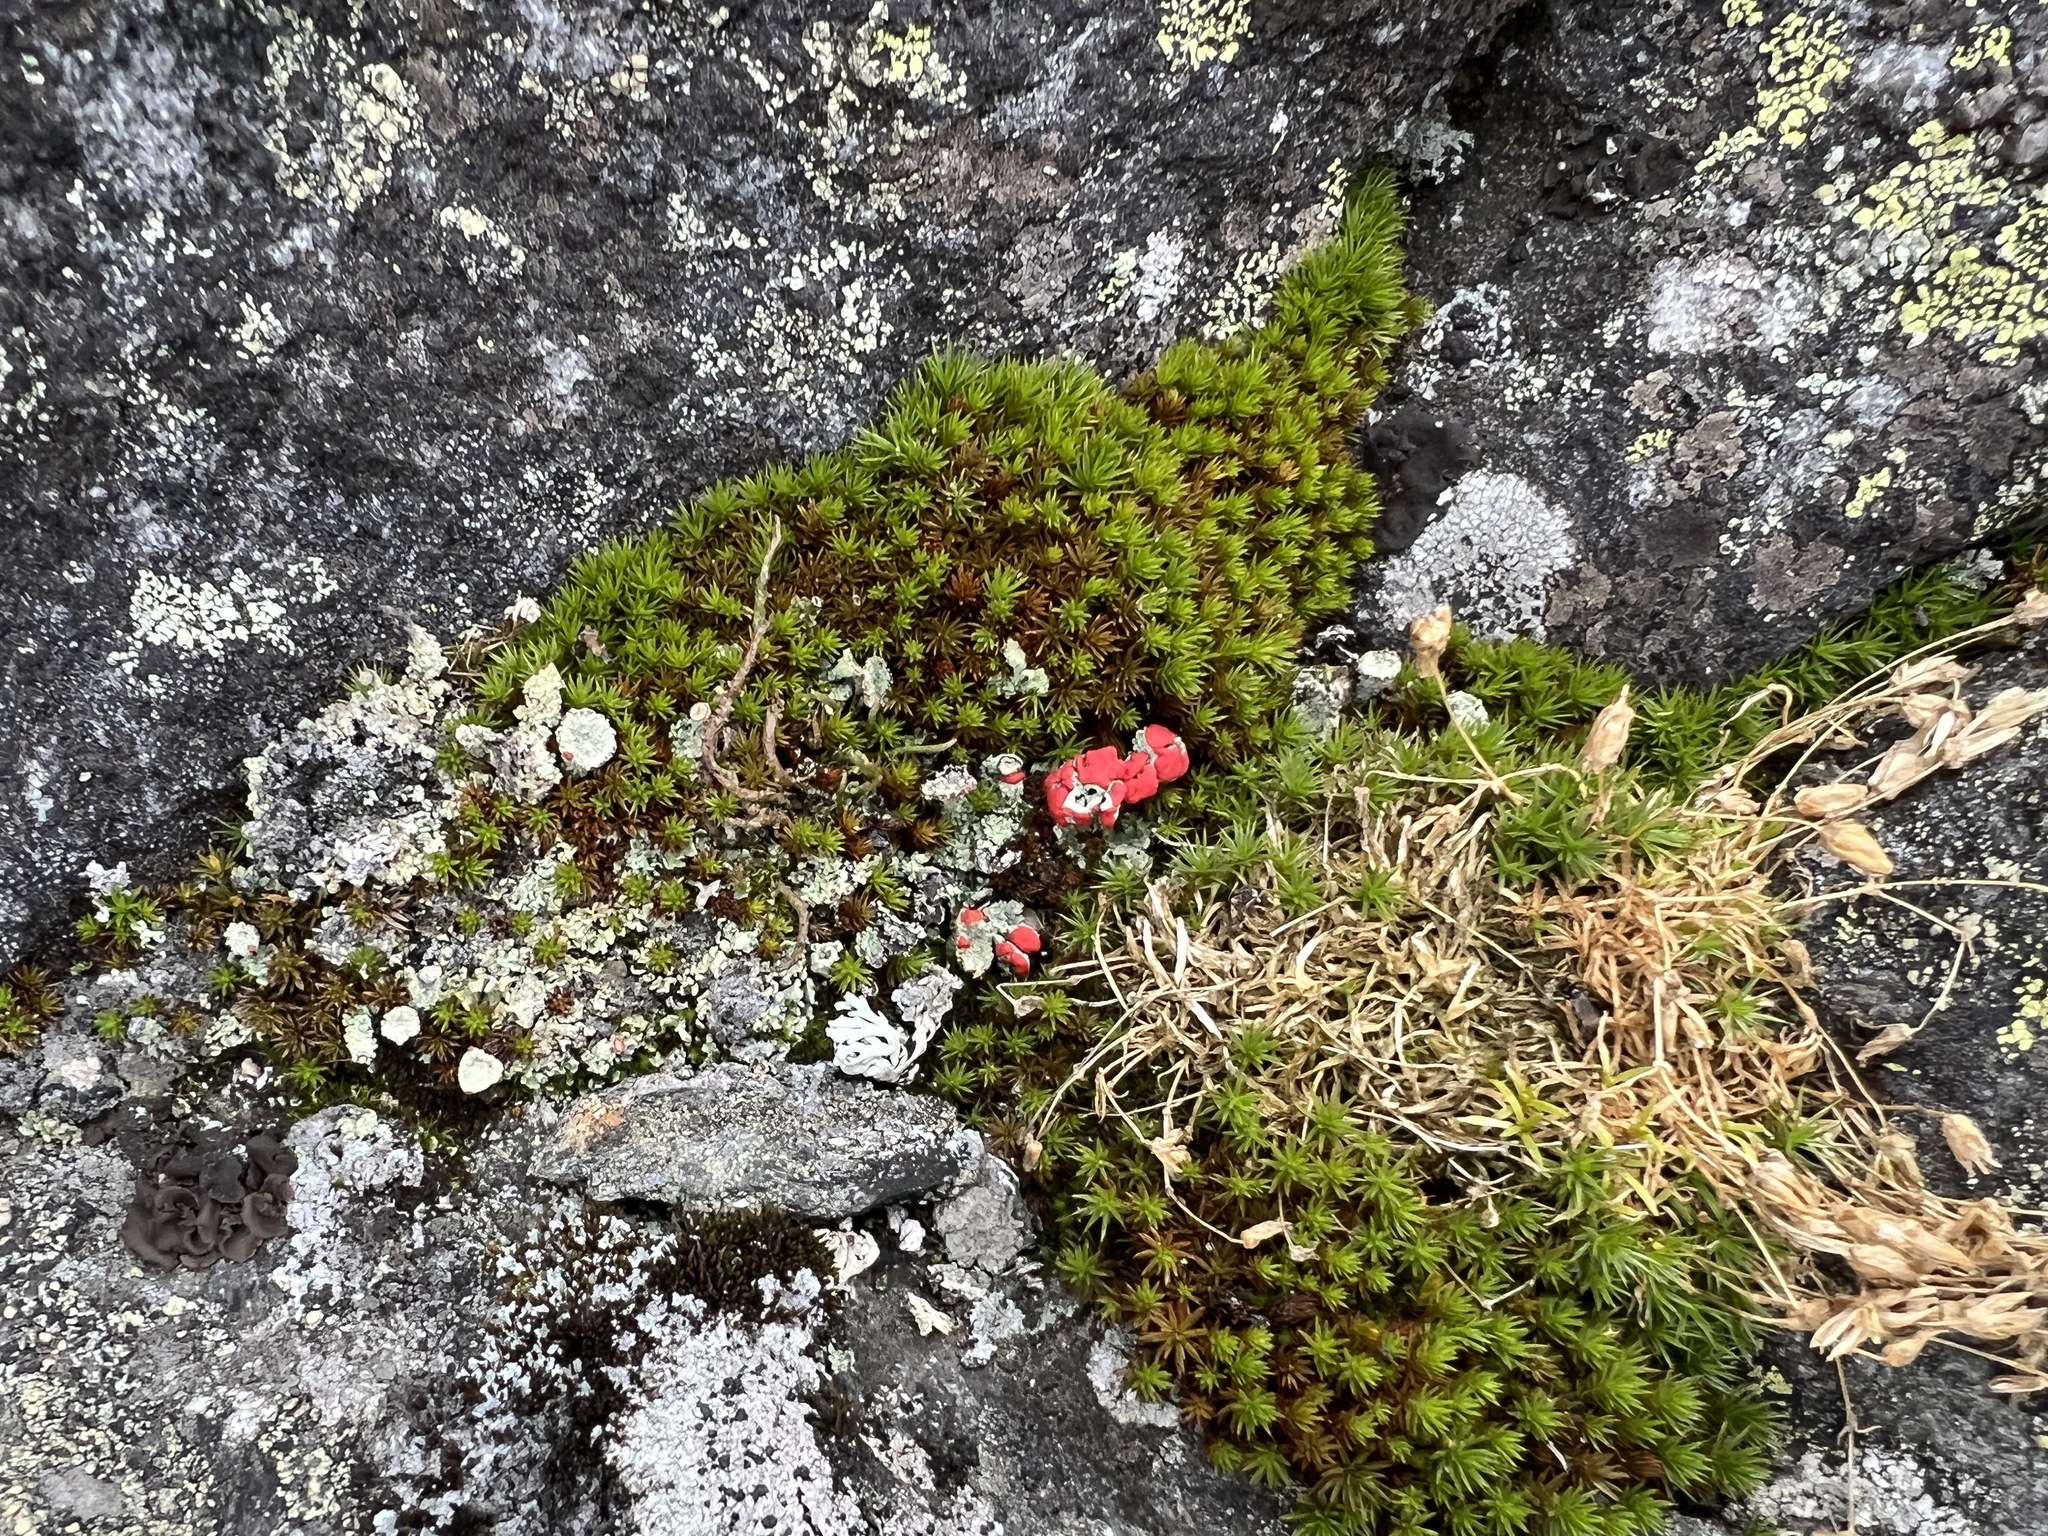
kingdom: Plantae
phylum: Bryophyta
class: Polytrichopsida
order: Polytrichales
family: Polytrichaceae
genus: Polytrichum
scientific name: Polytrichum piliferum
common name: Bristly haircap
